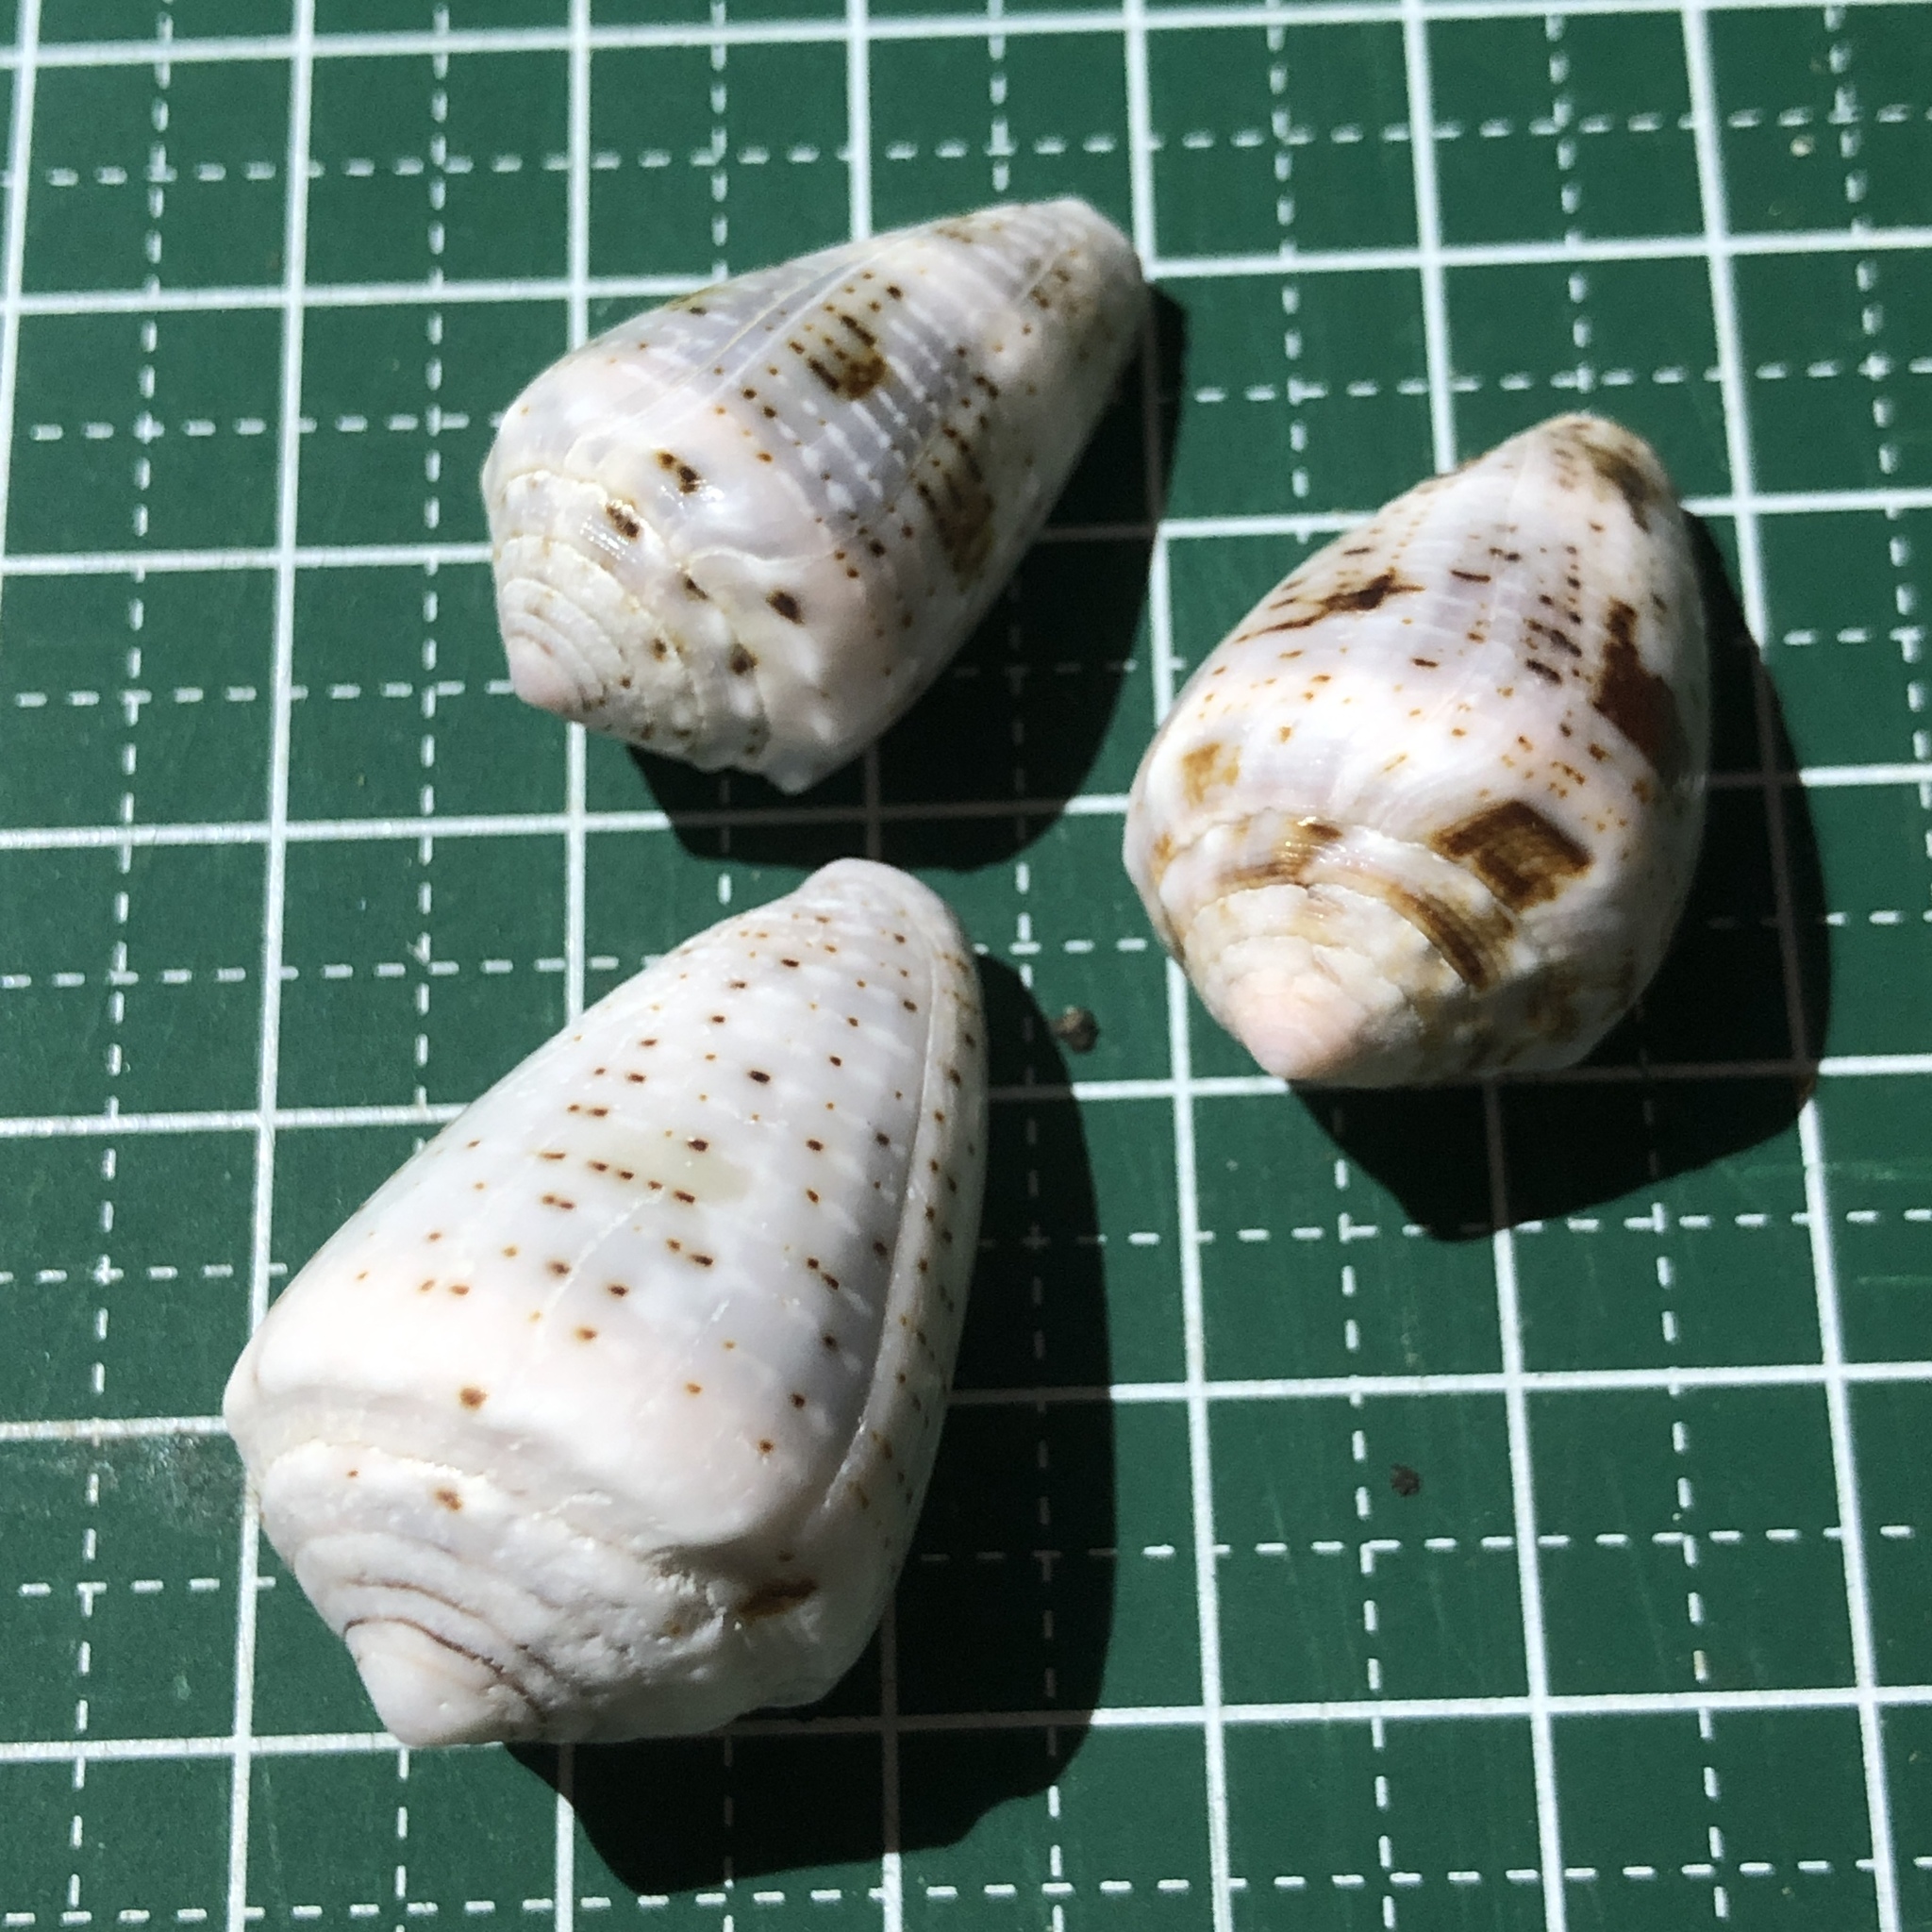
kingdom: Animalia
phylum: Mollusca
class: Gastropoda
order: Neogastropoda
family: Conidae
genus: Conus
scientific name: Conus coronatus
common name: Coronated cone
